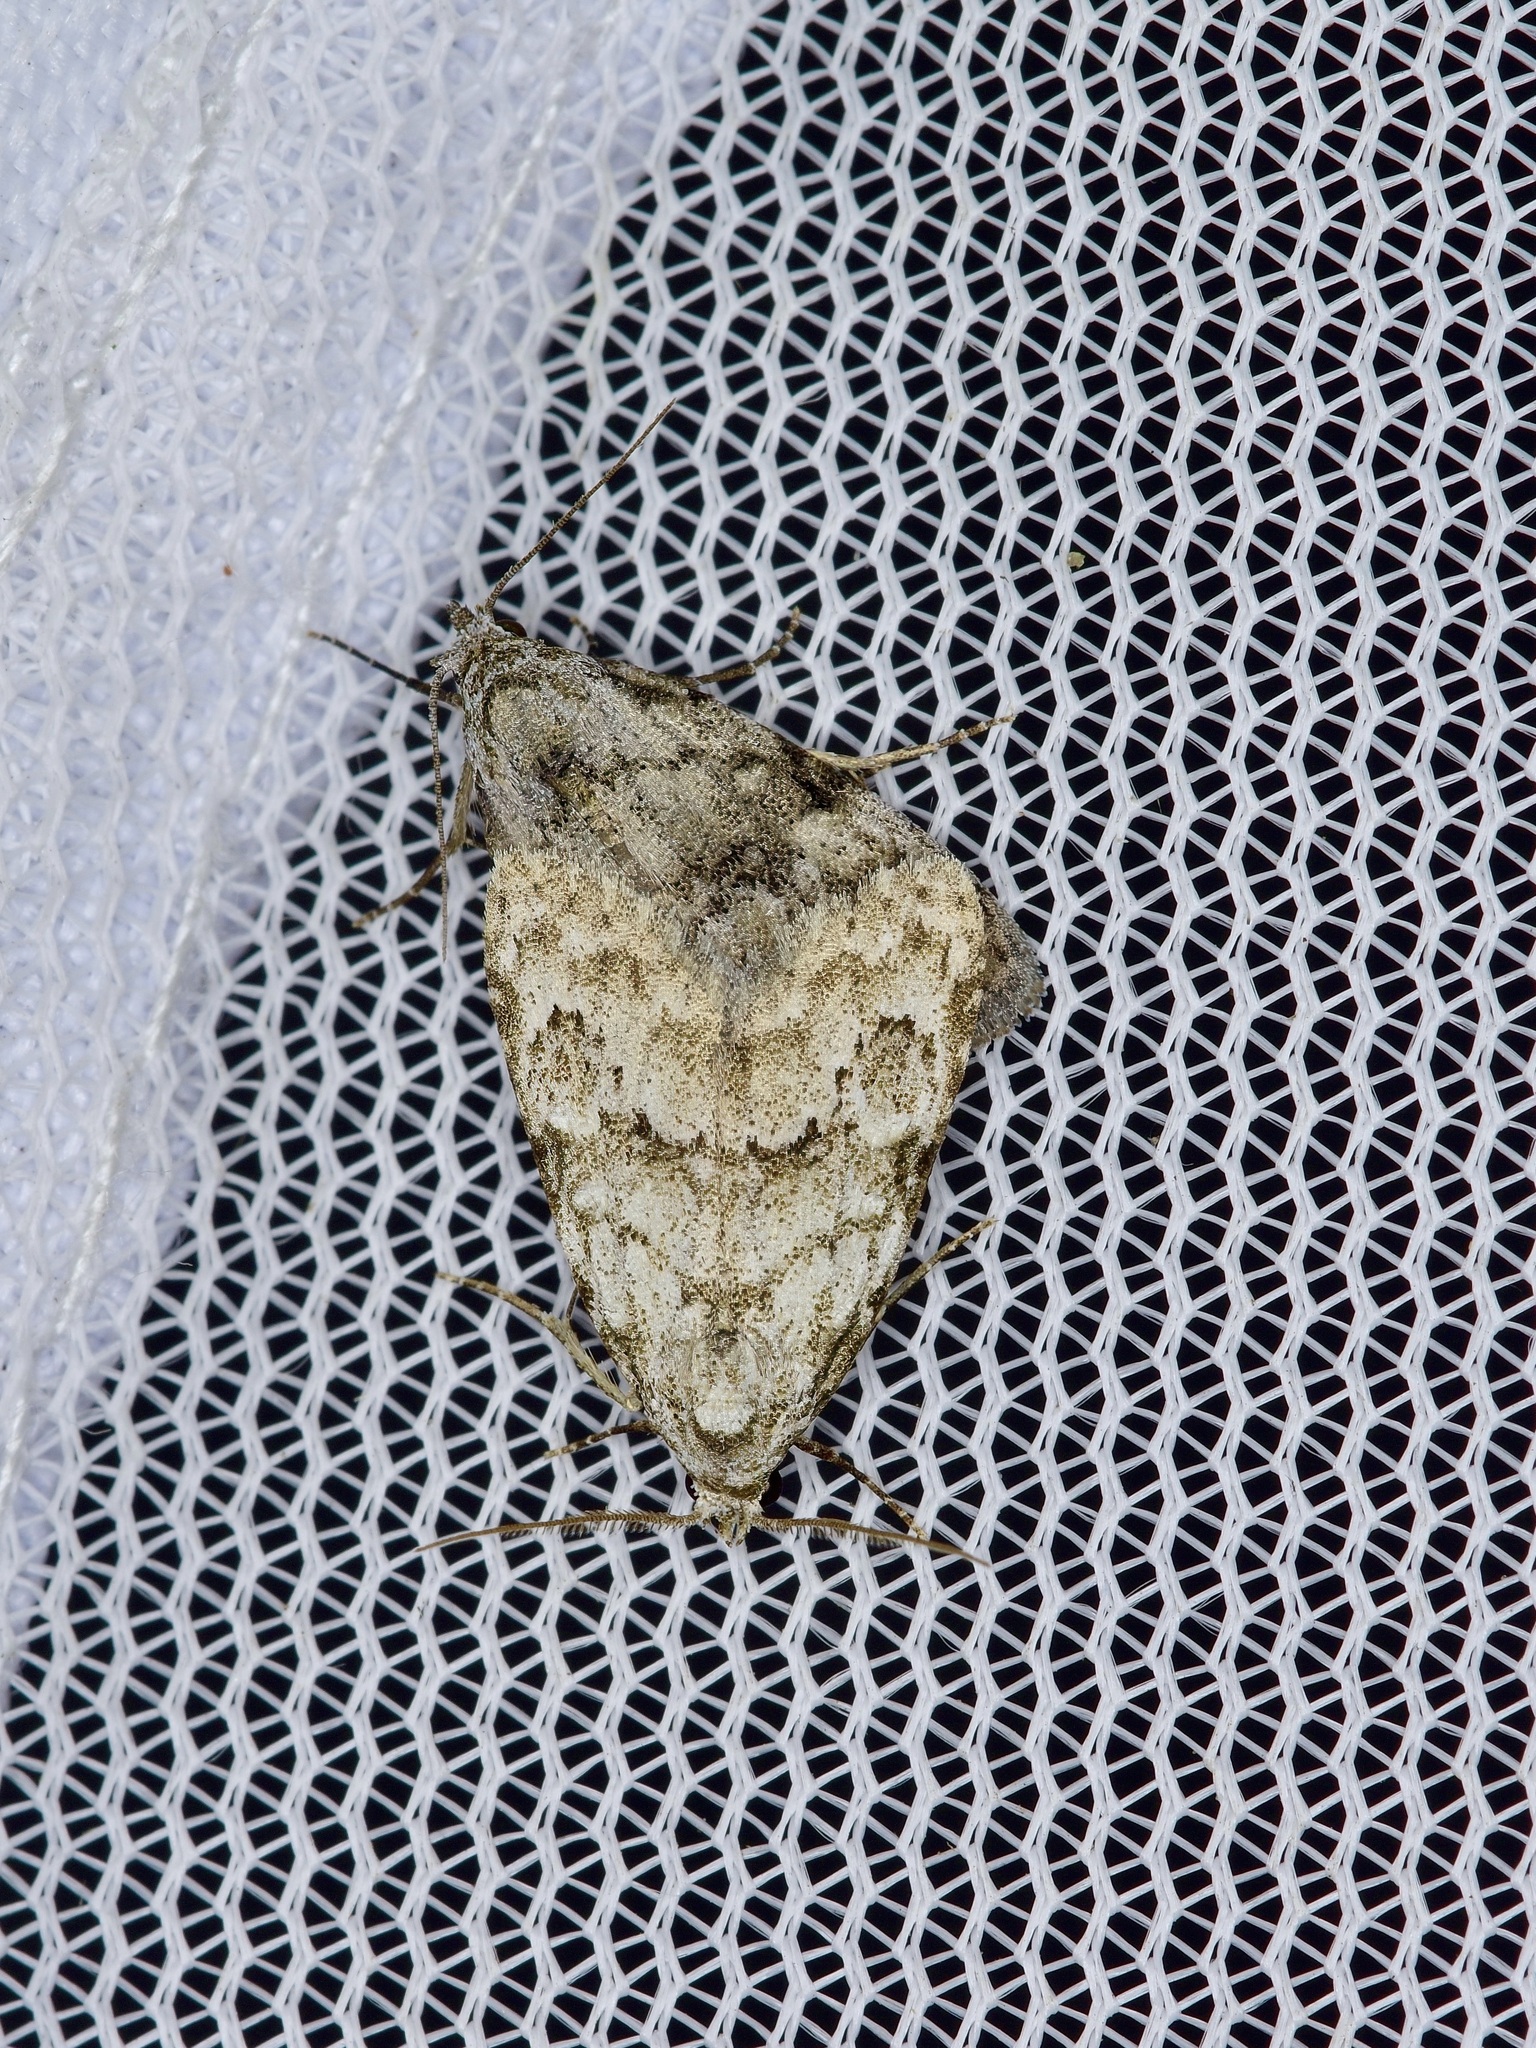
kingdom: Animalia
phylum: Arthropoda
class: Insecta
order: Lepidoptera
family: Nolidae
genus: Meganola
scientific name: Meganola minuscula
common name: Confused meganola moth
